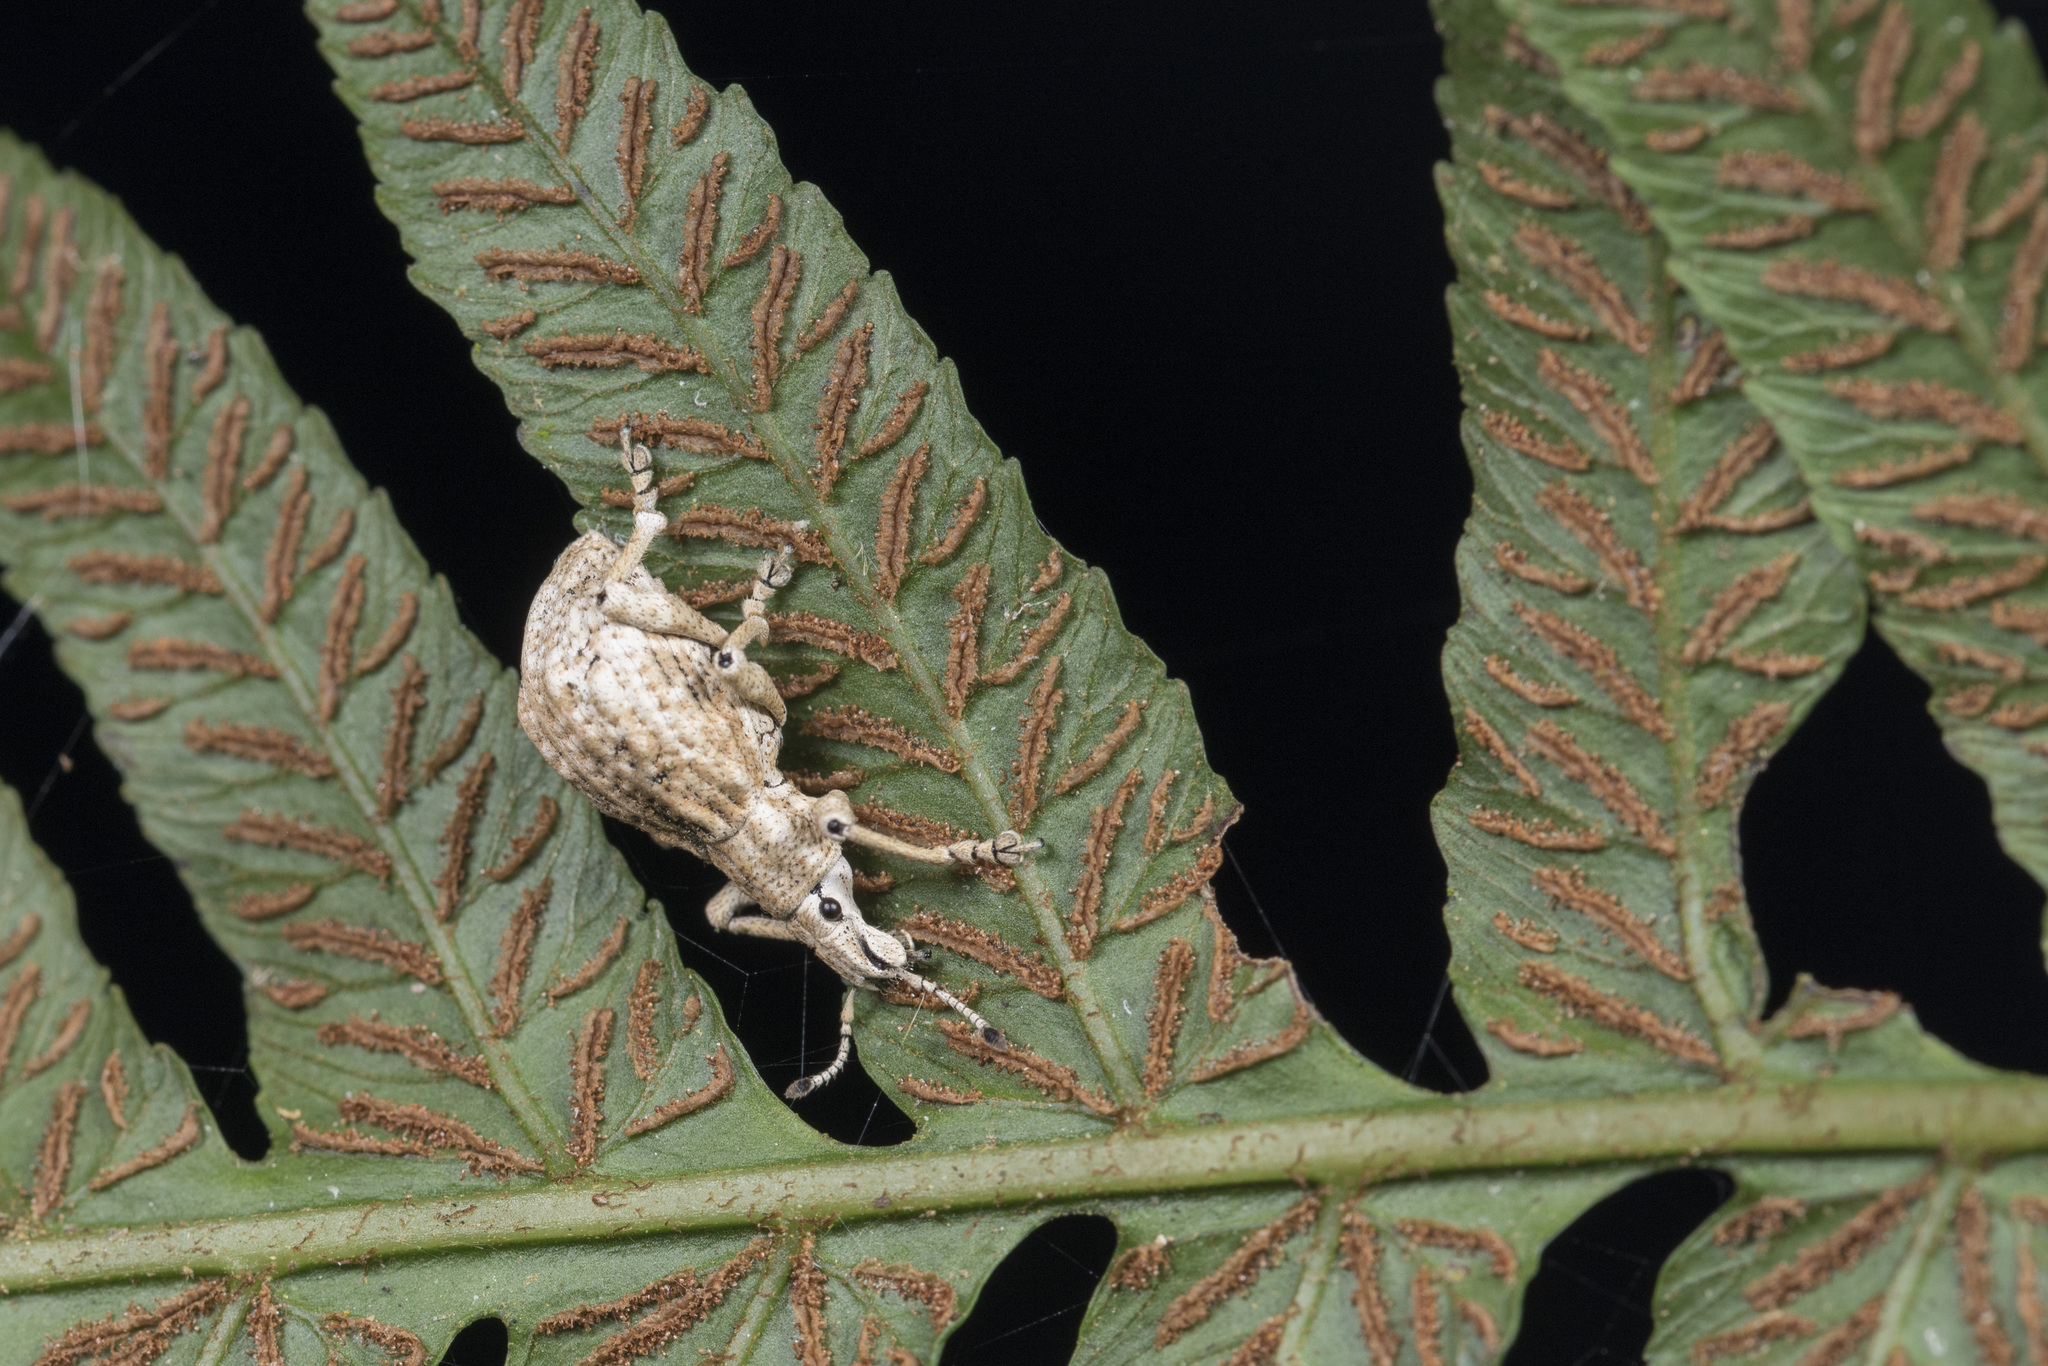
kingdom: Animalia
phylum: Arthropoda
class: Insecta
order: Coleoptera
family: Curculionidae
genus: Dermatoxenus
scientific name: Dermatoxenus caesicollis
